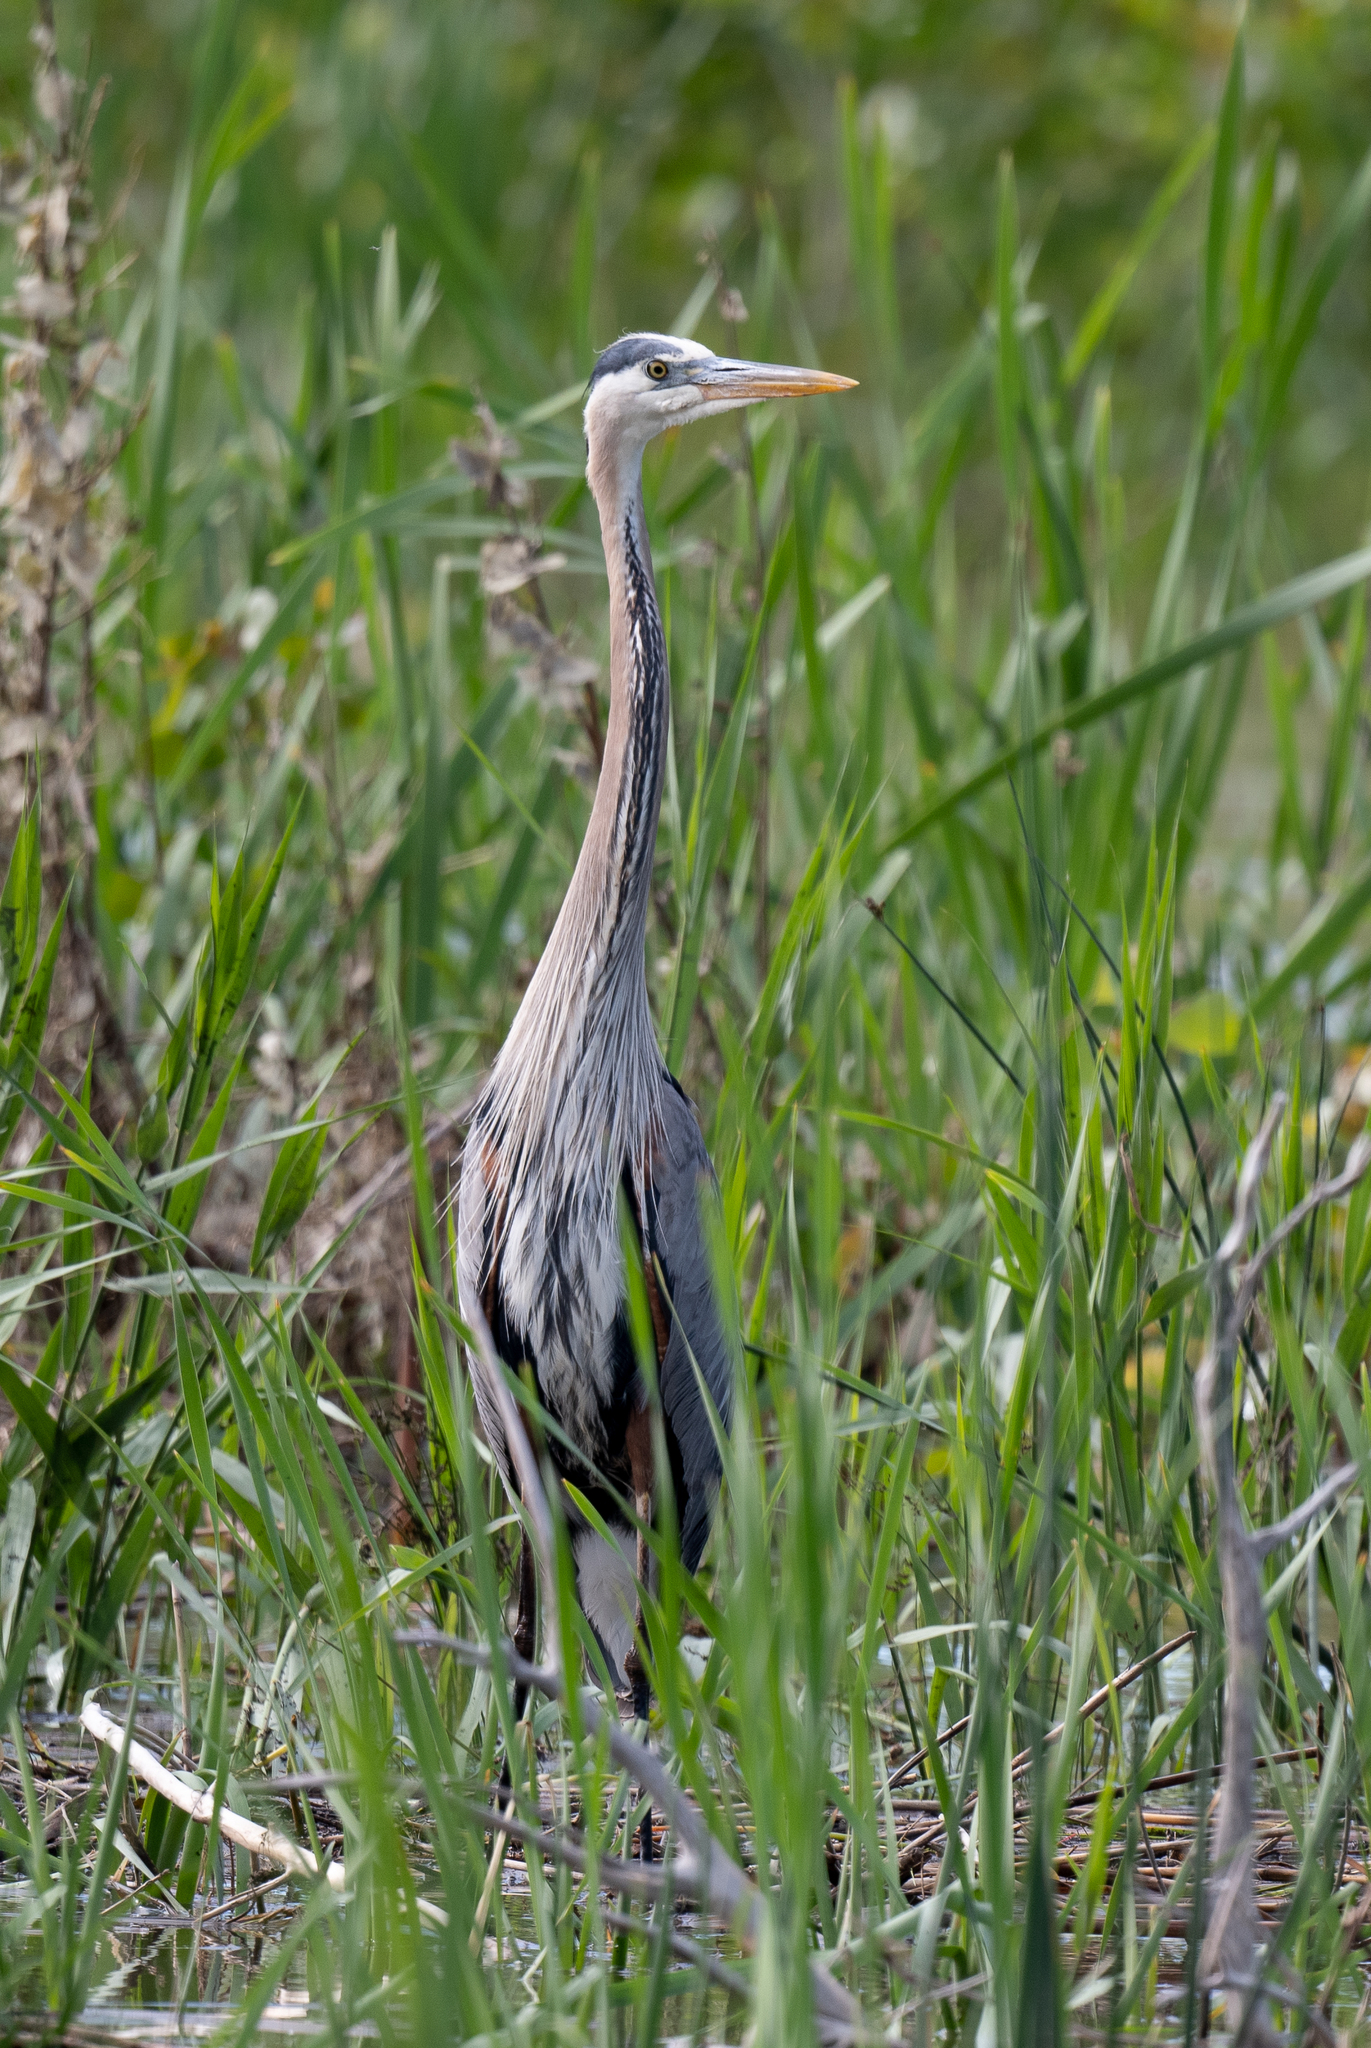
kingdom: Animalia
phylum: Chordata
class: Aves
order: Pelecaniformes
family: Ardeidae
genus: Ardea
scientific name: Ardea herodias
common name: Great blue heron
